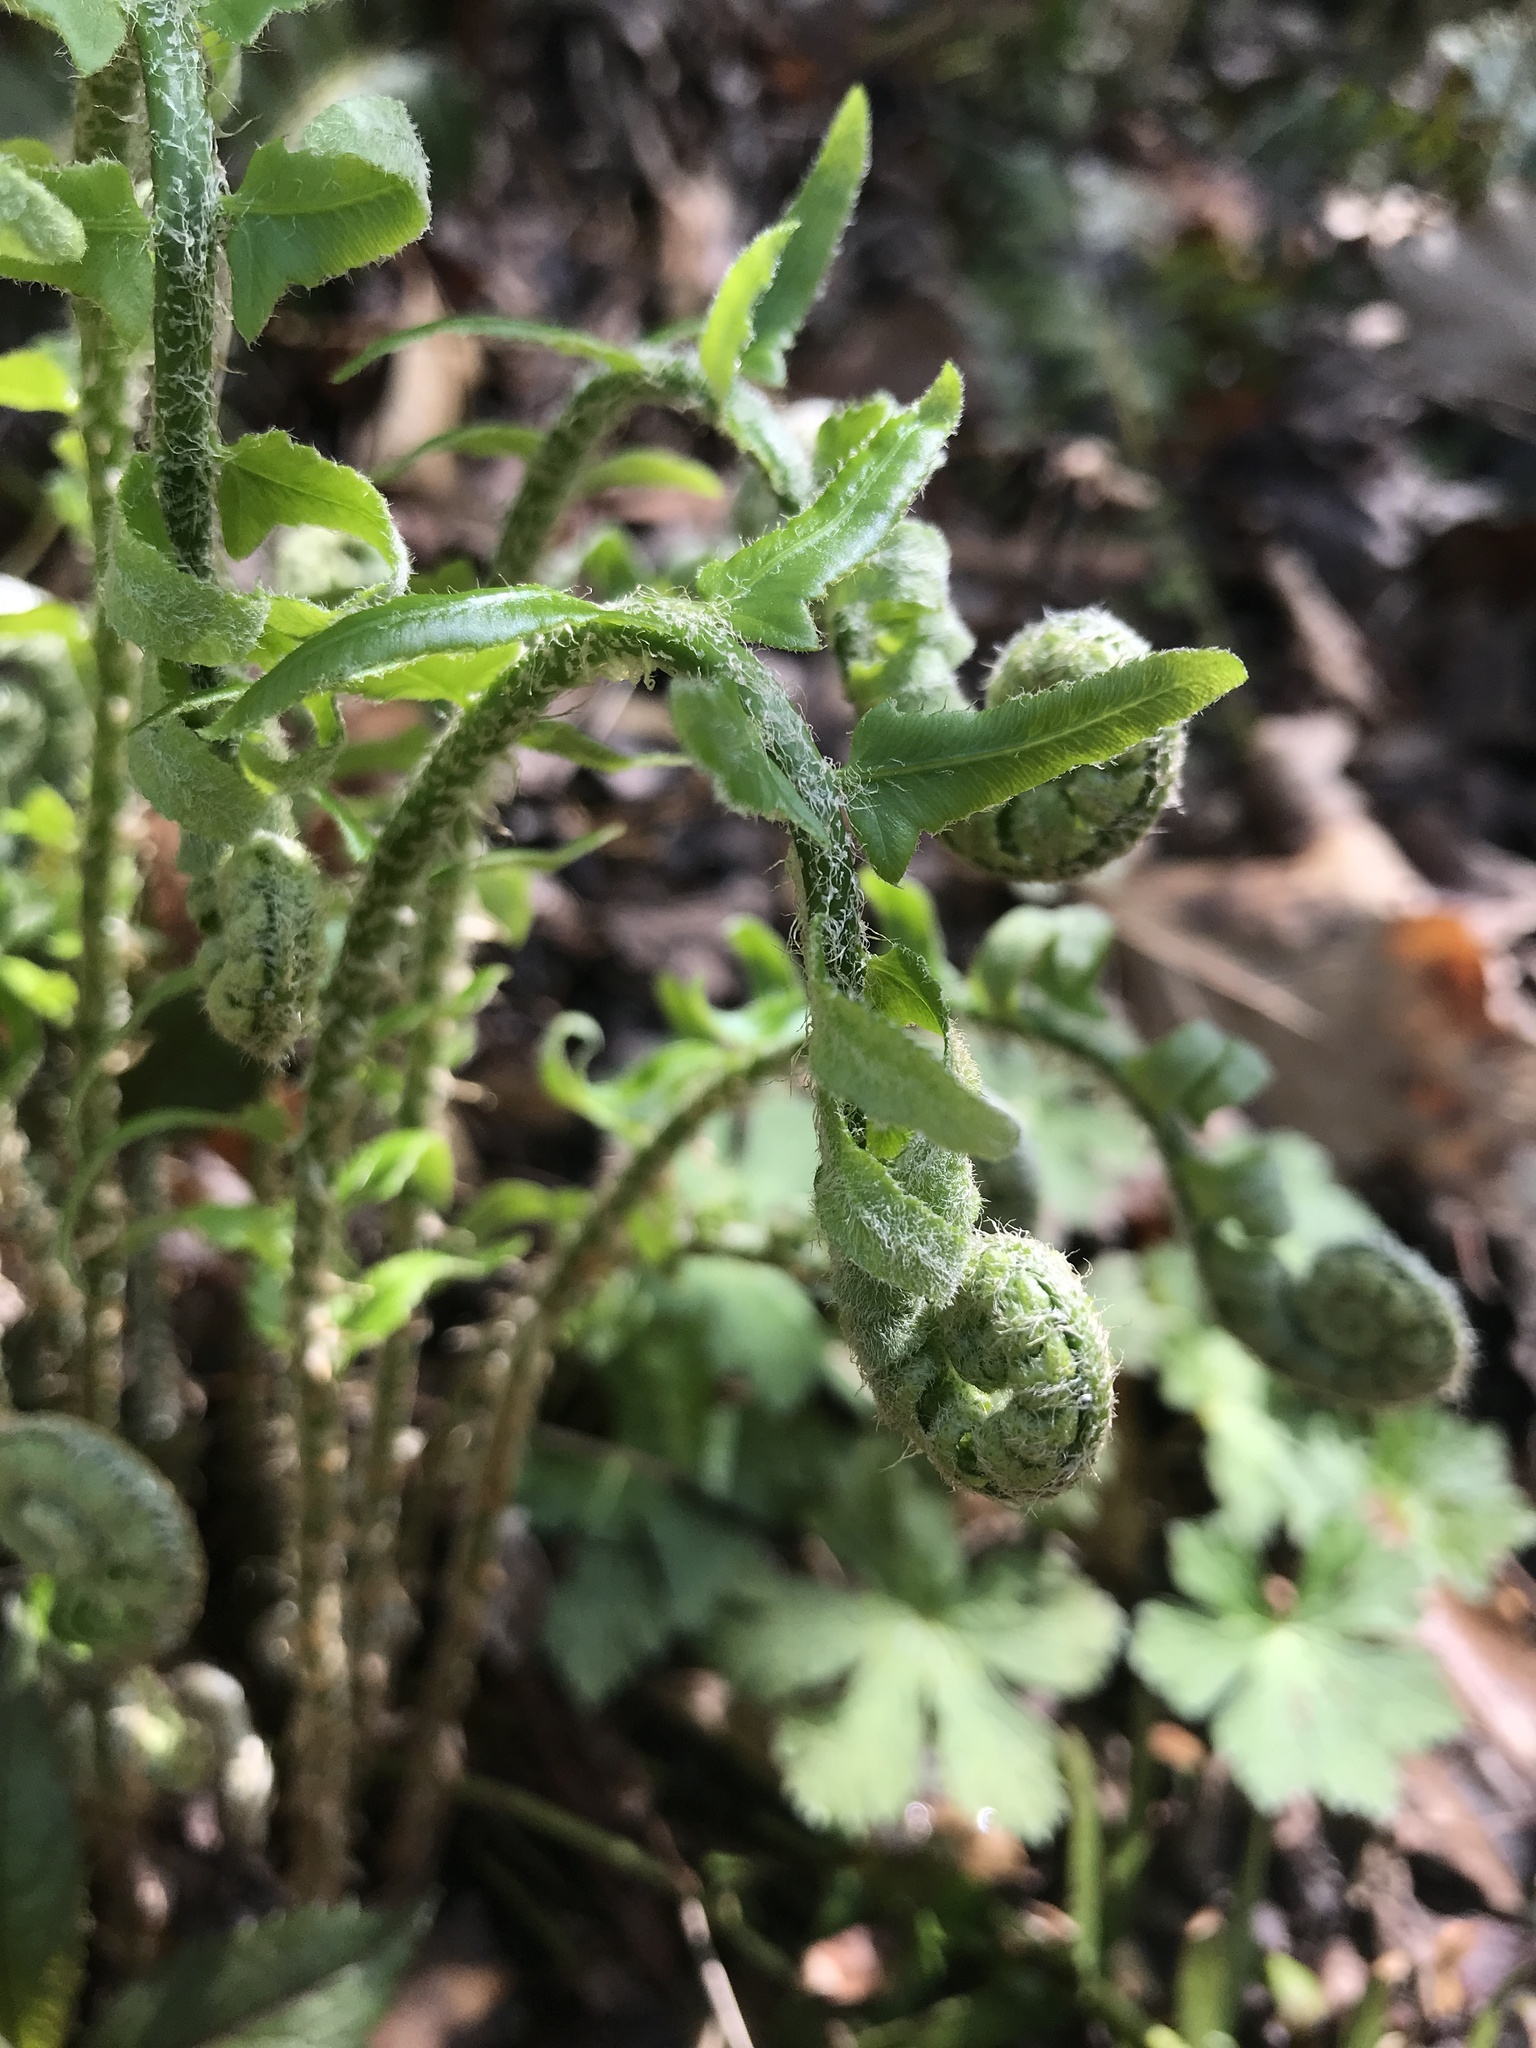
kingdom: Plantae
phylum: Tracheophyta
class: Polypodiopsida
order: Polypodiales
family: Dryopteridaceae
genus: Polystichum
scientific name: Polystichum acrostichoides
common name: Christmas fern
